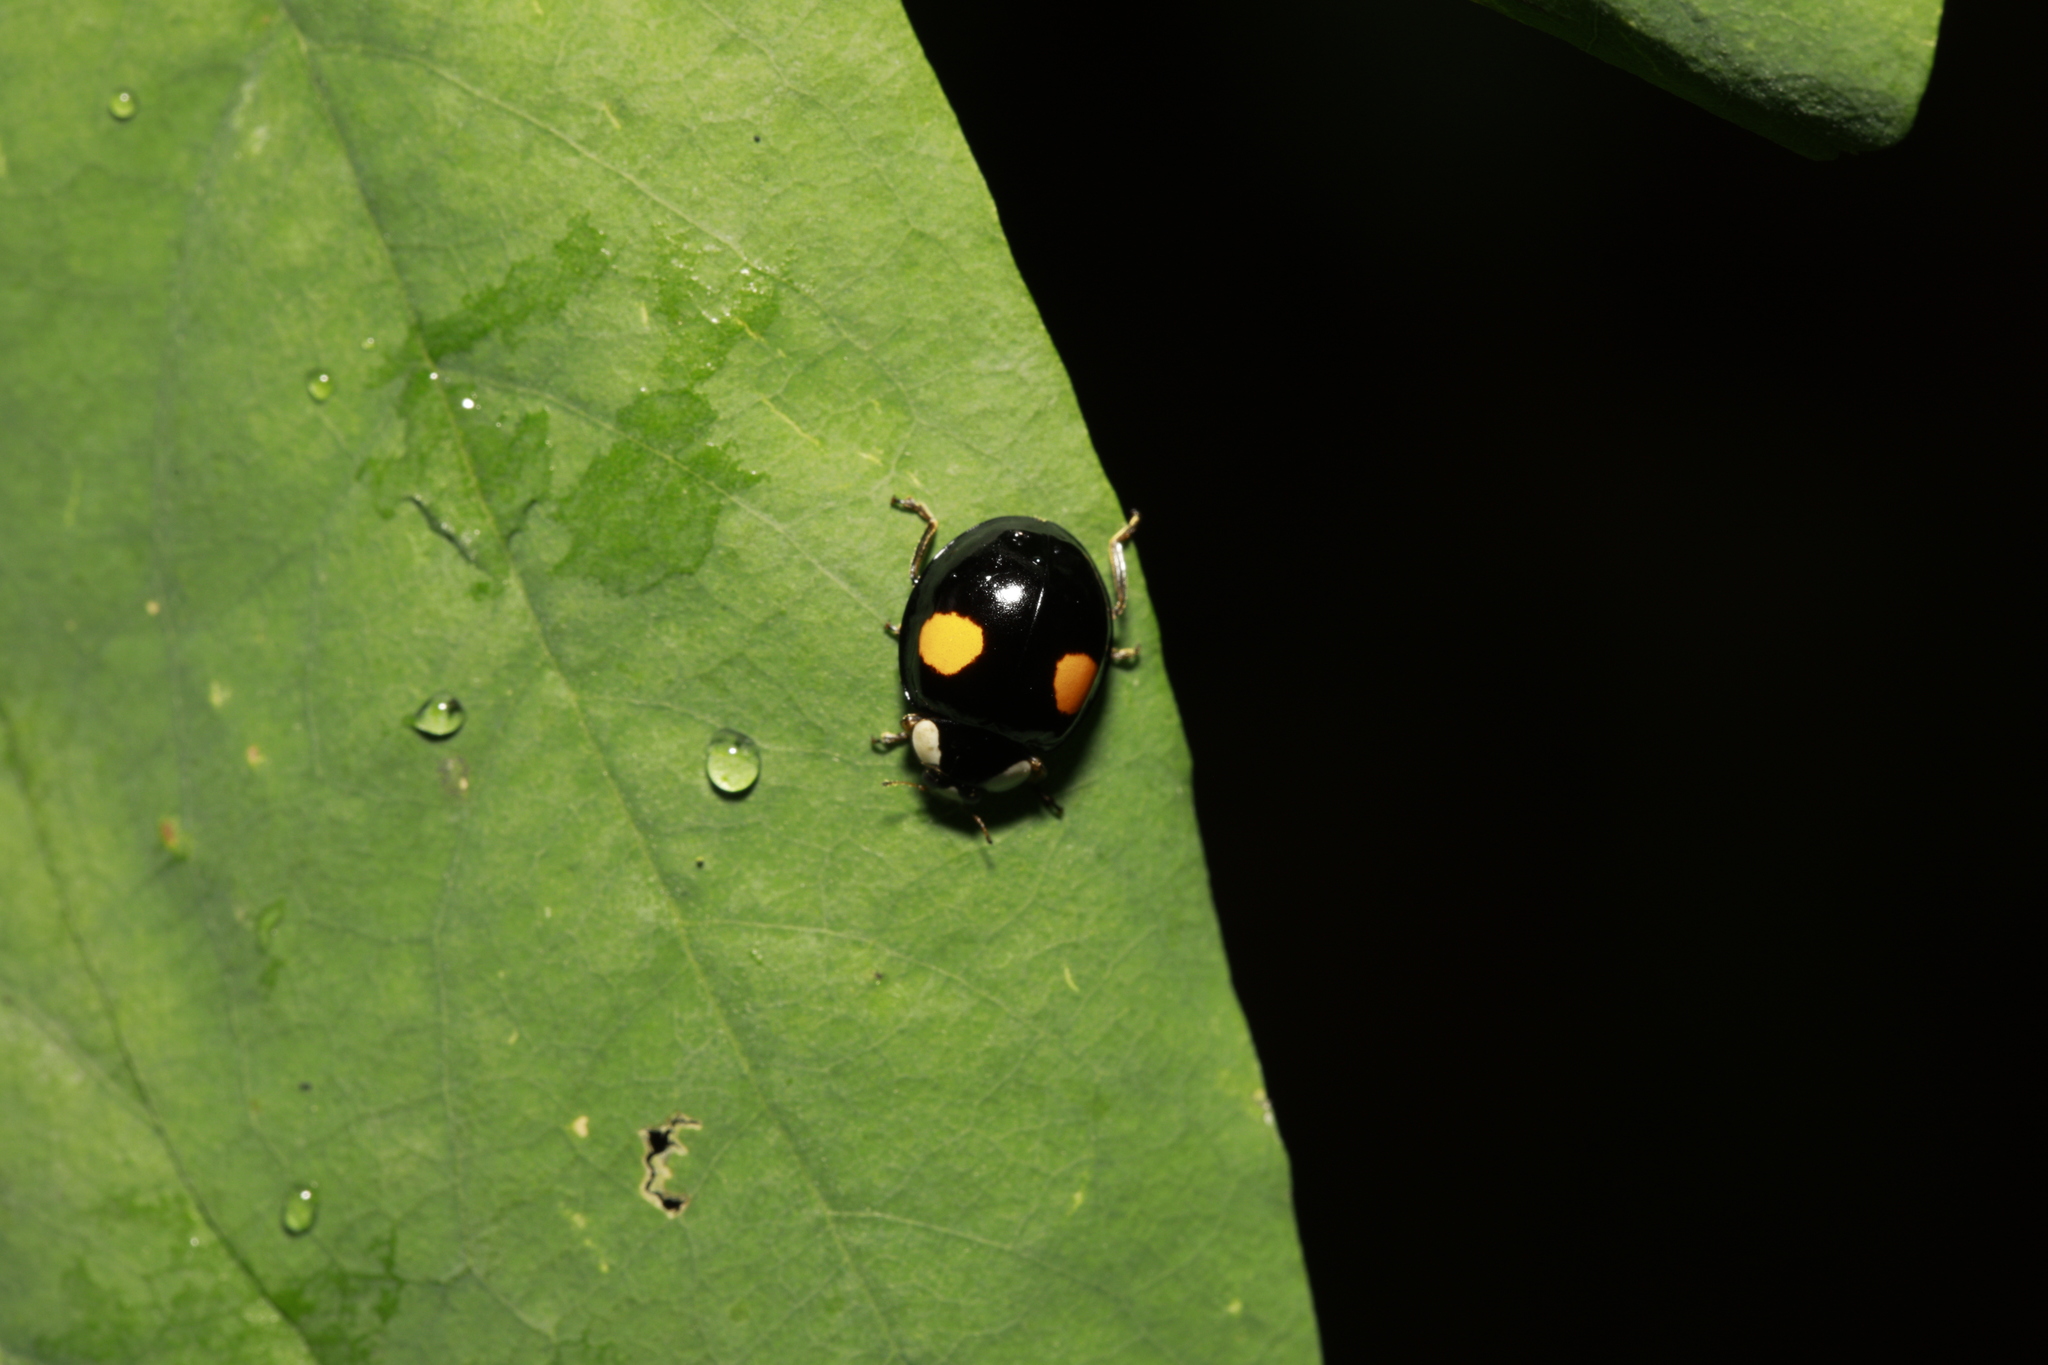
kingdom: Animalia
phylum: Arthropoda
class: Insecta
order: Coleoptera
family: Coccinellidae
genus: Harmonia
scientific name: Harmonia axyridis
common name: Harlequin ladybird
